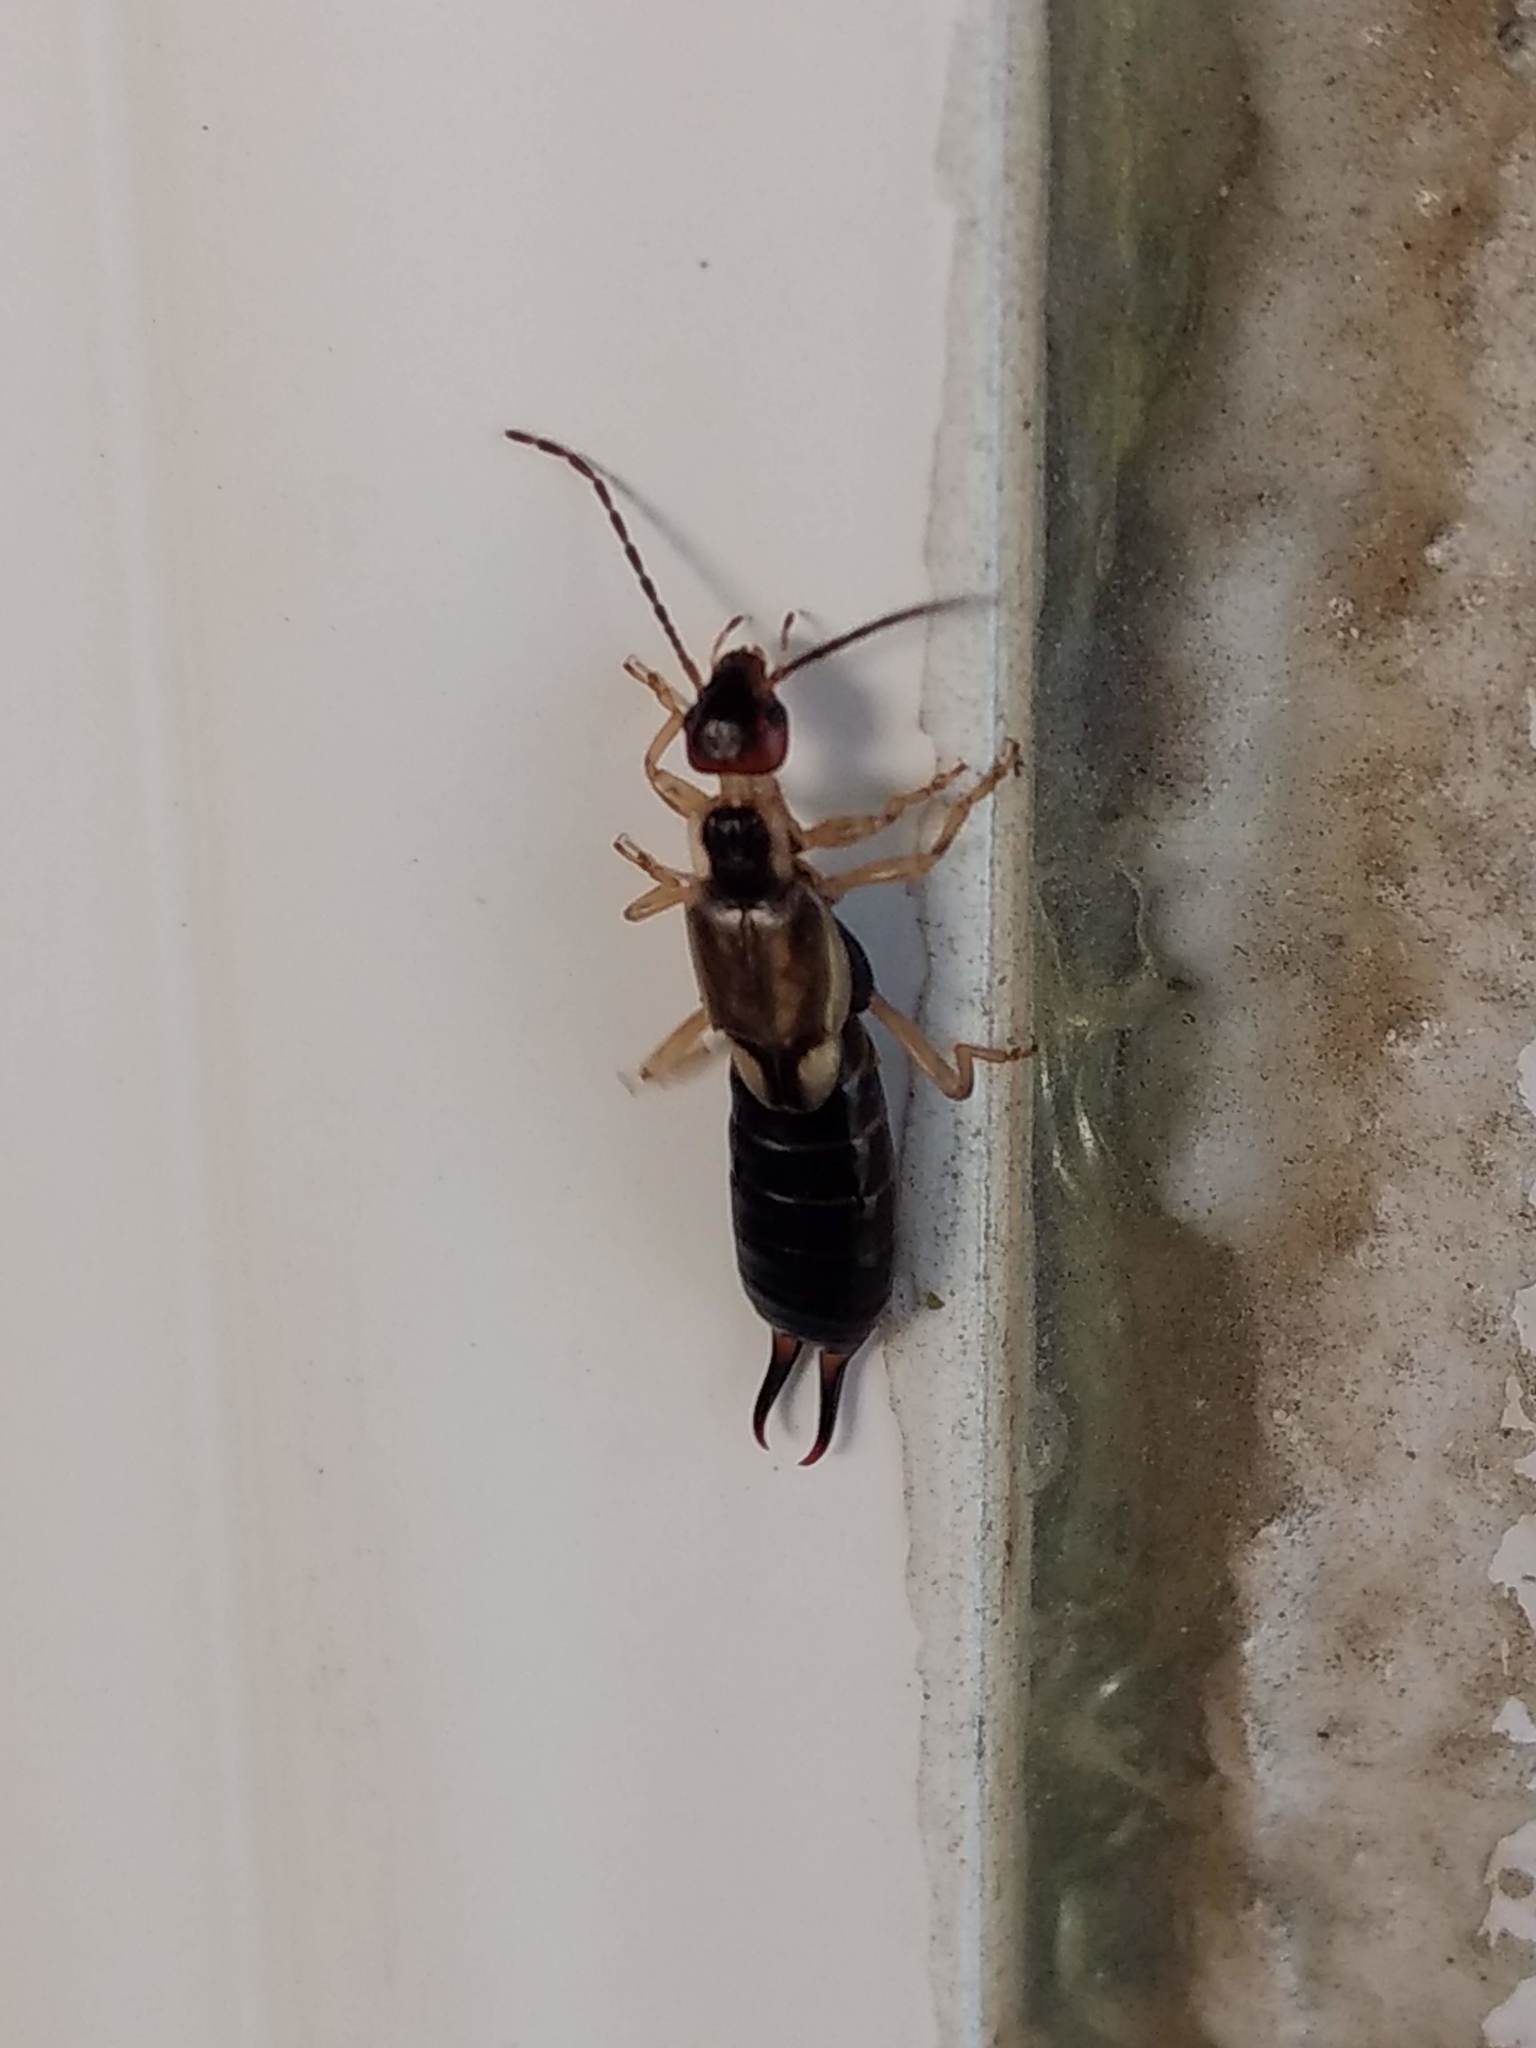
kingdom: Animalia
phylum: Arthropoda
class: Insecta
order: Dermaptera
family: Forficulidae
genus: Forficula
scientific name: Forficula
